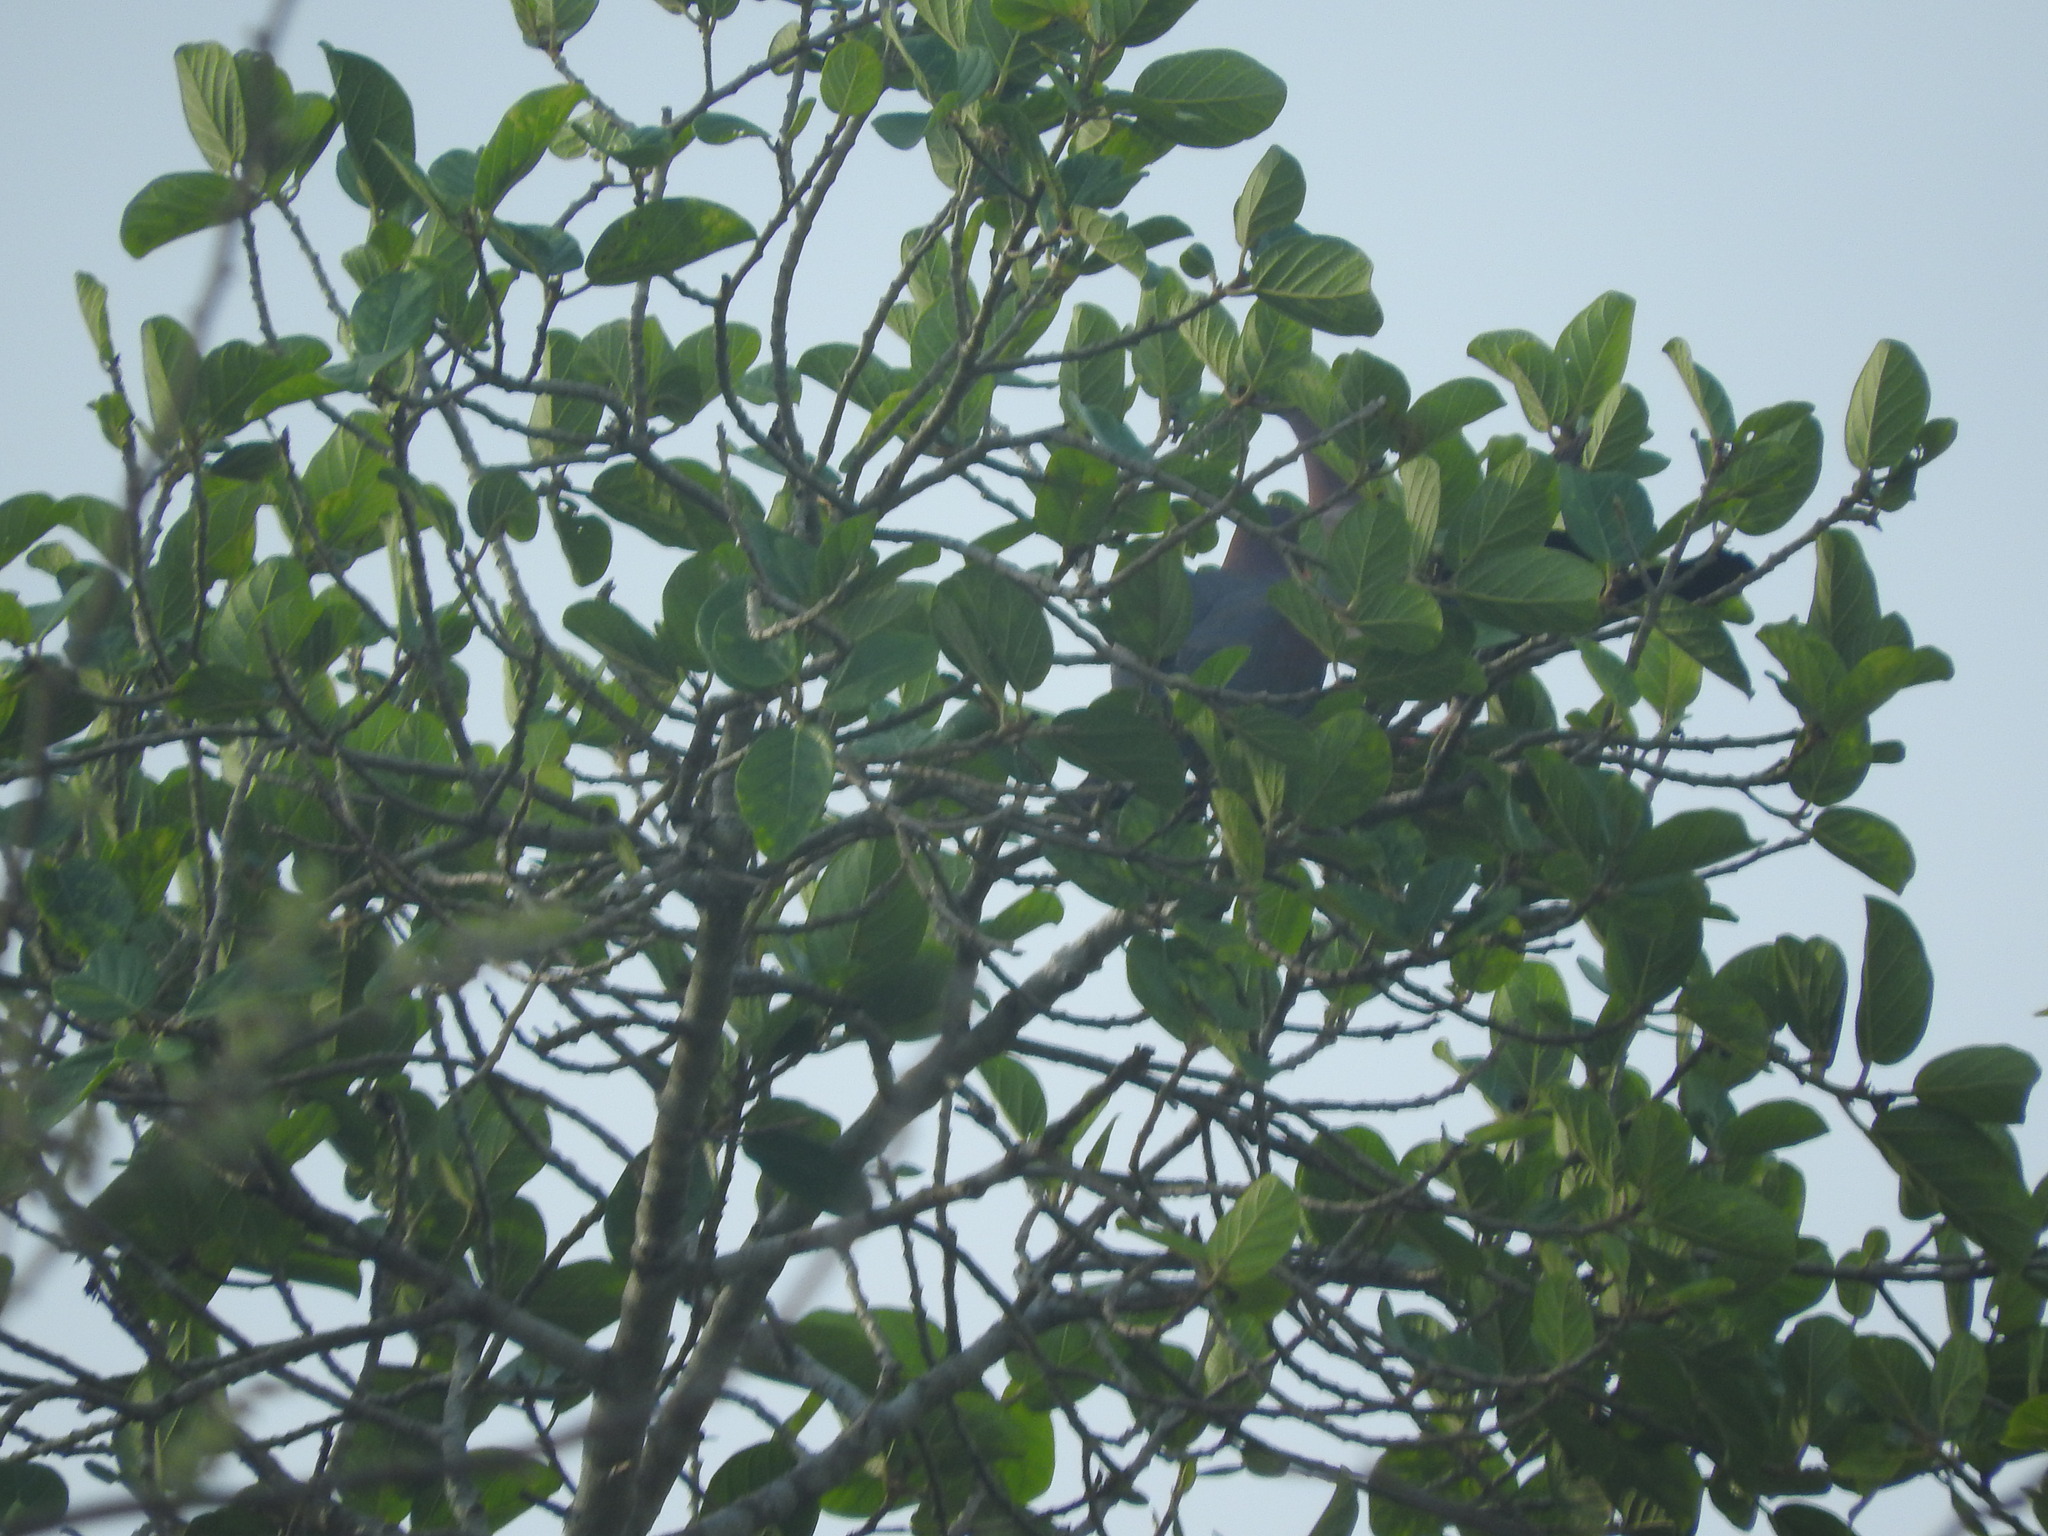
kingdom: Animalia
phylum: Chordata
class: Aves
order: Columbiformes
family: Columbidae
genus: Patagioenas
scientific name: Patagioenas flavirostris
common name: Red-billed pigeon
